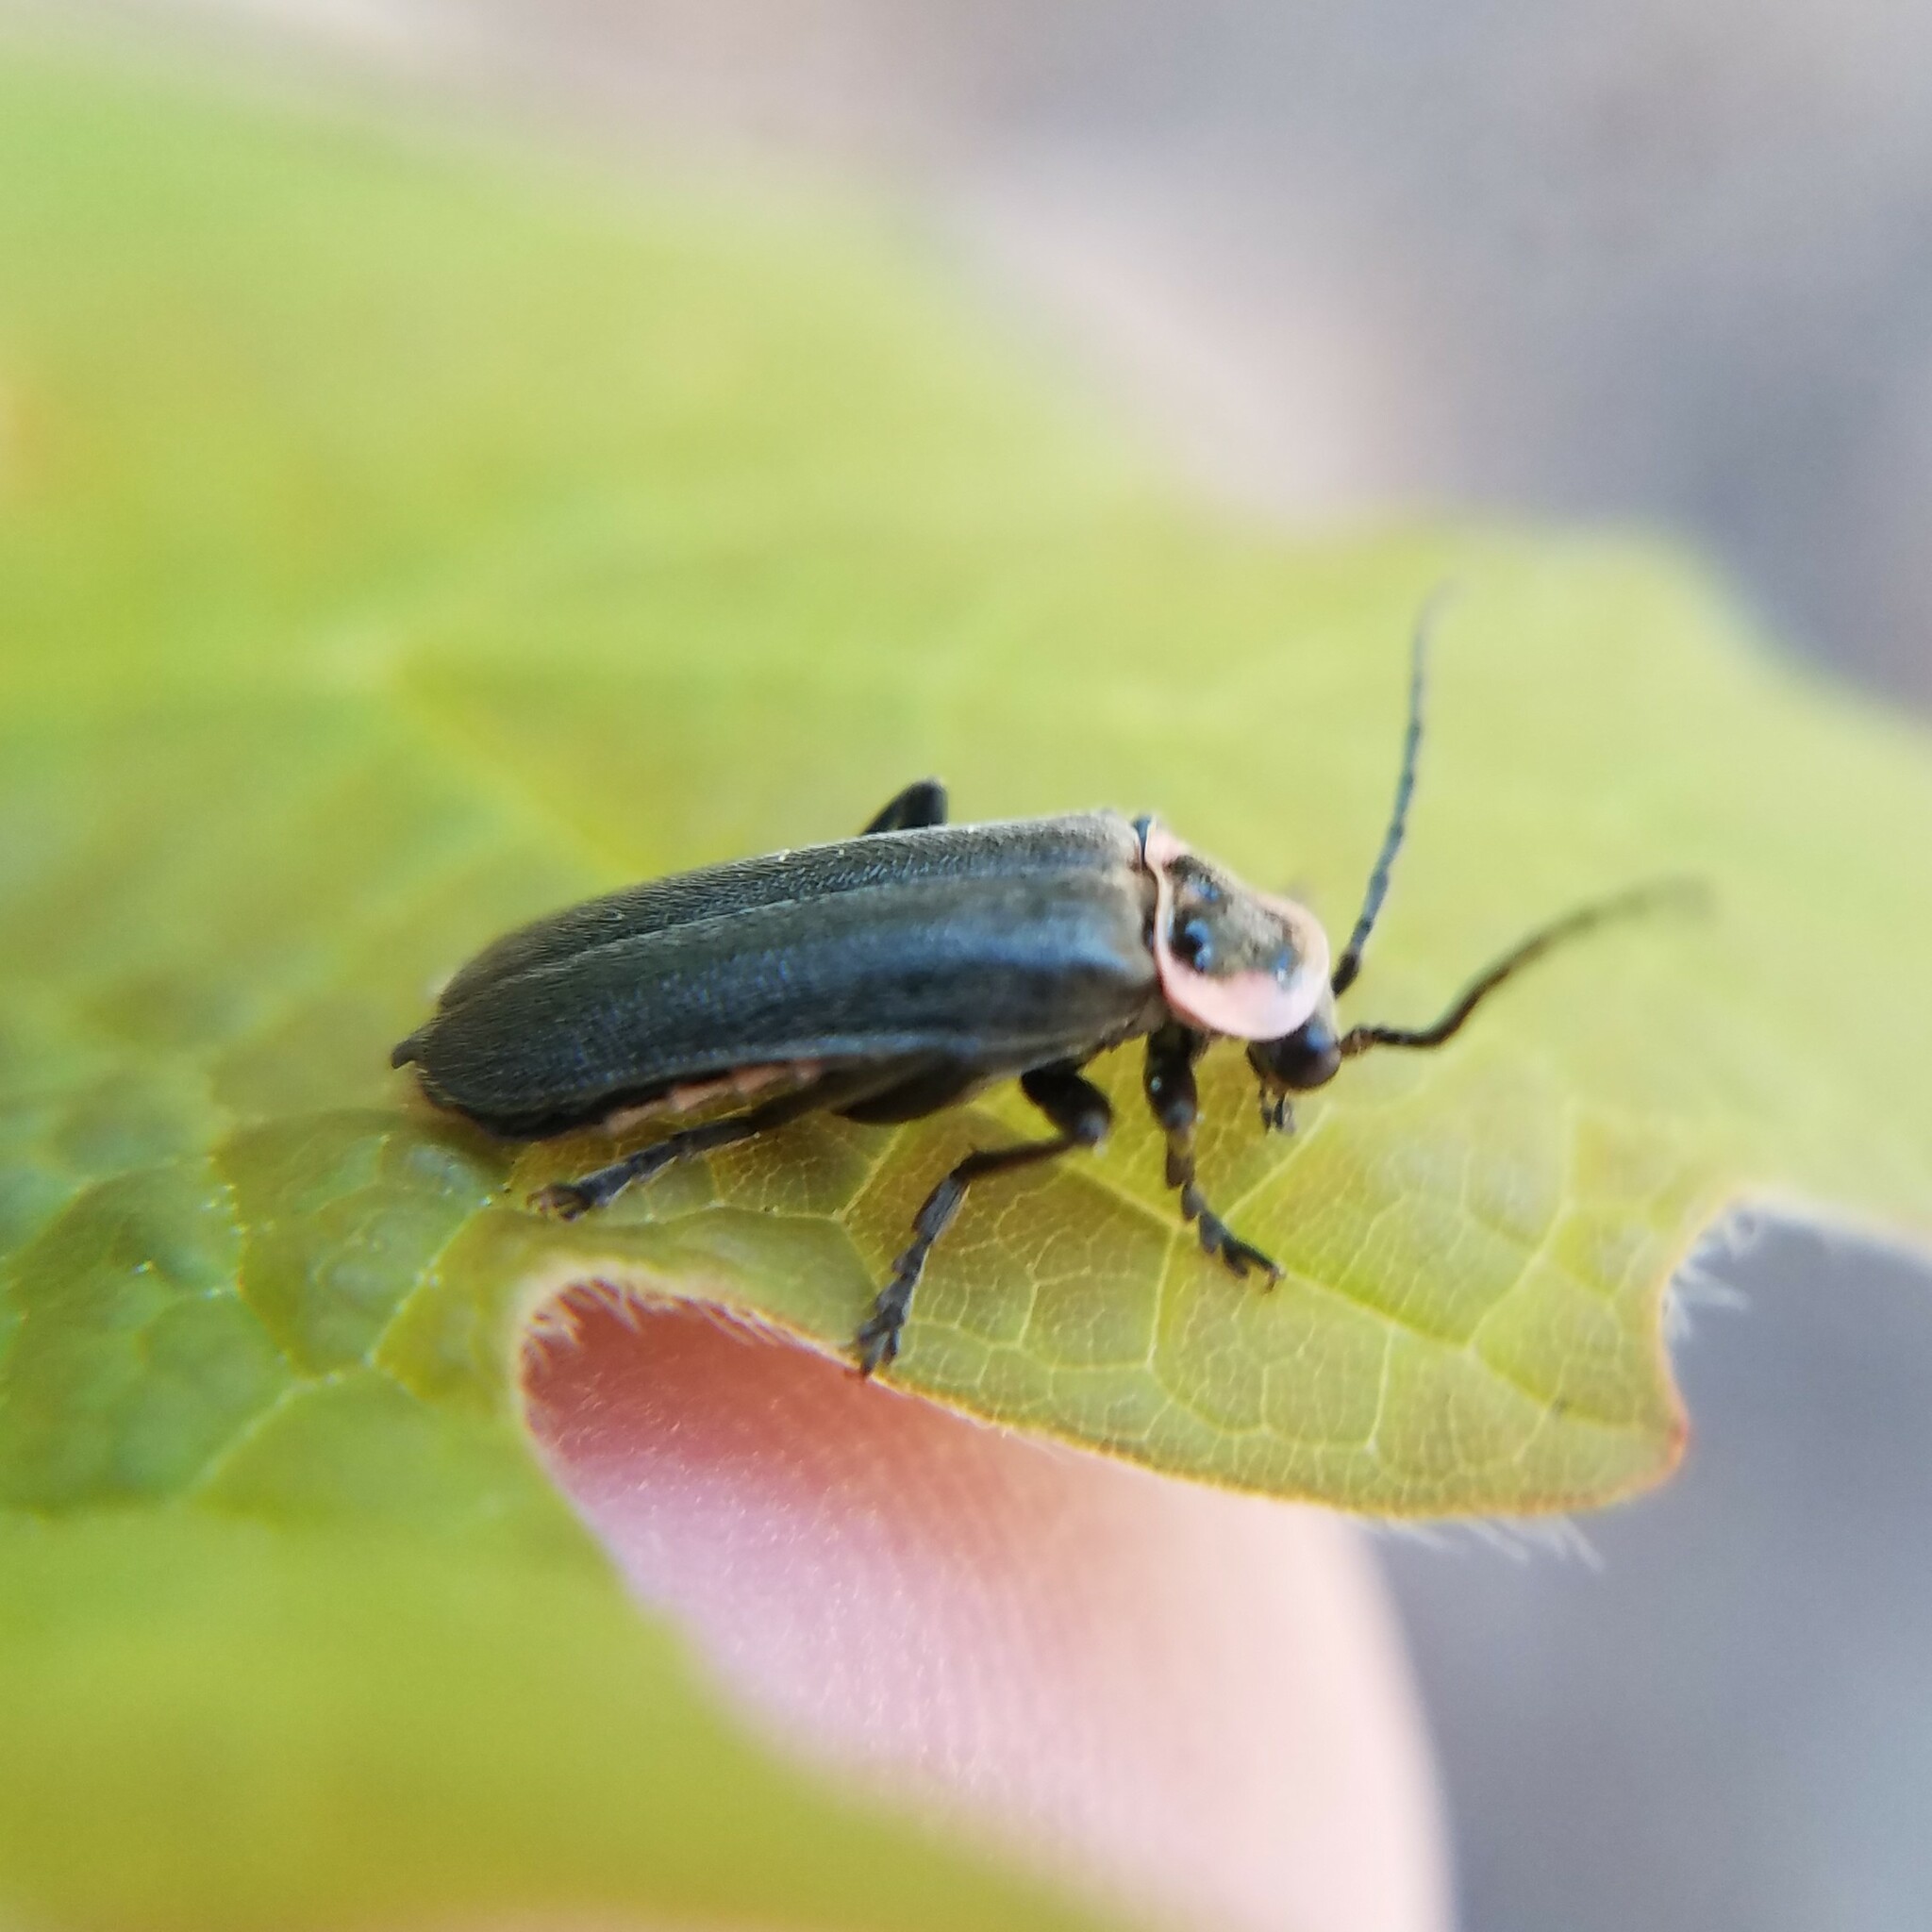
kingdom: Animalia
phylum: Arthropoda
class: Insecta
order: Coleoptera
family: Cantharidae
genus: Atalantycha
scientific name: Atalantycha neglecta
